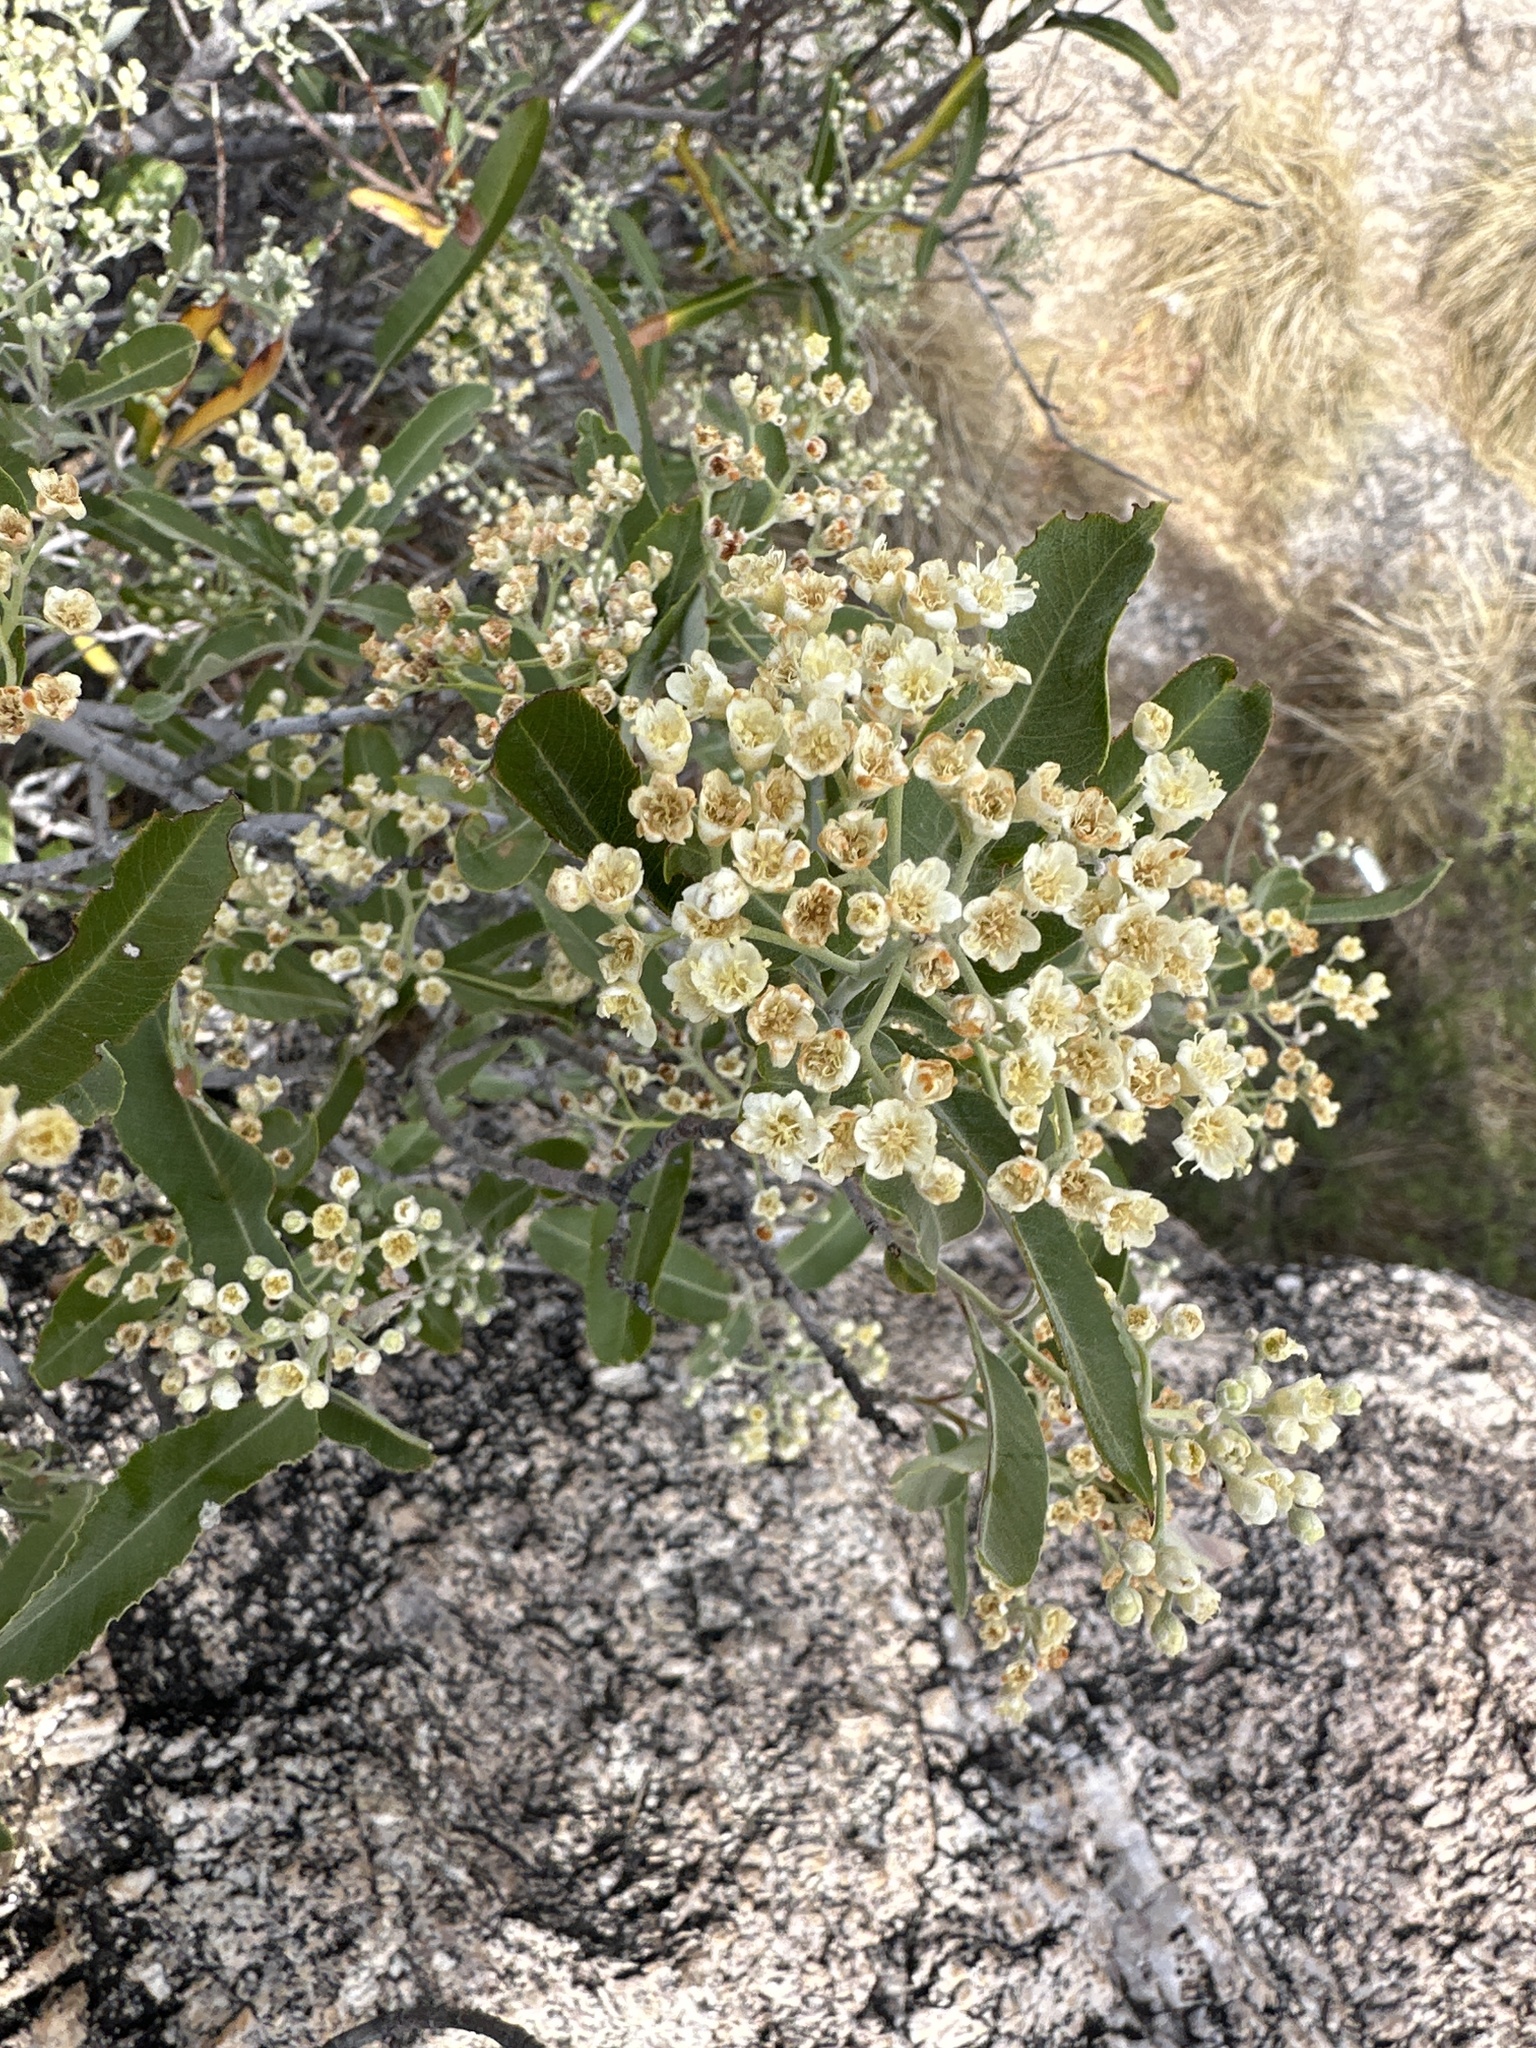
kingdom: Plantae
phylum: Tracheophyta
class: Magnoliopsida
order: Rosales
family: Rosaceae
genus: Vauquelinia
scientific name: Vauquelinia californica
